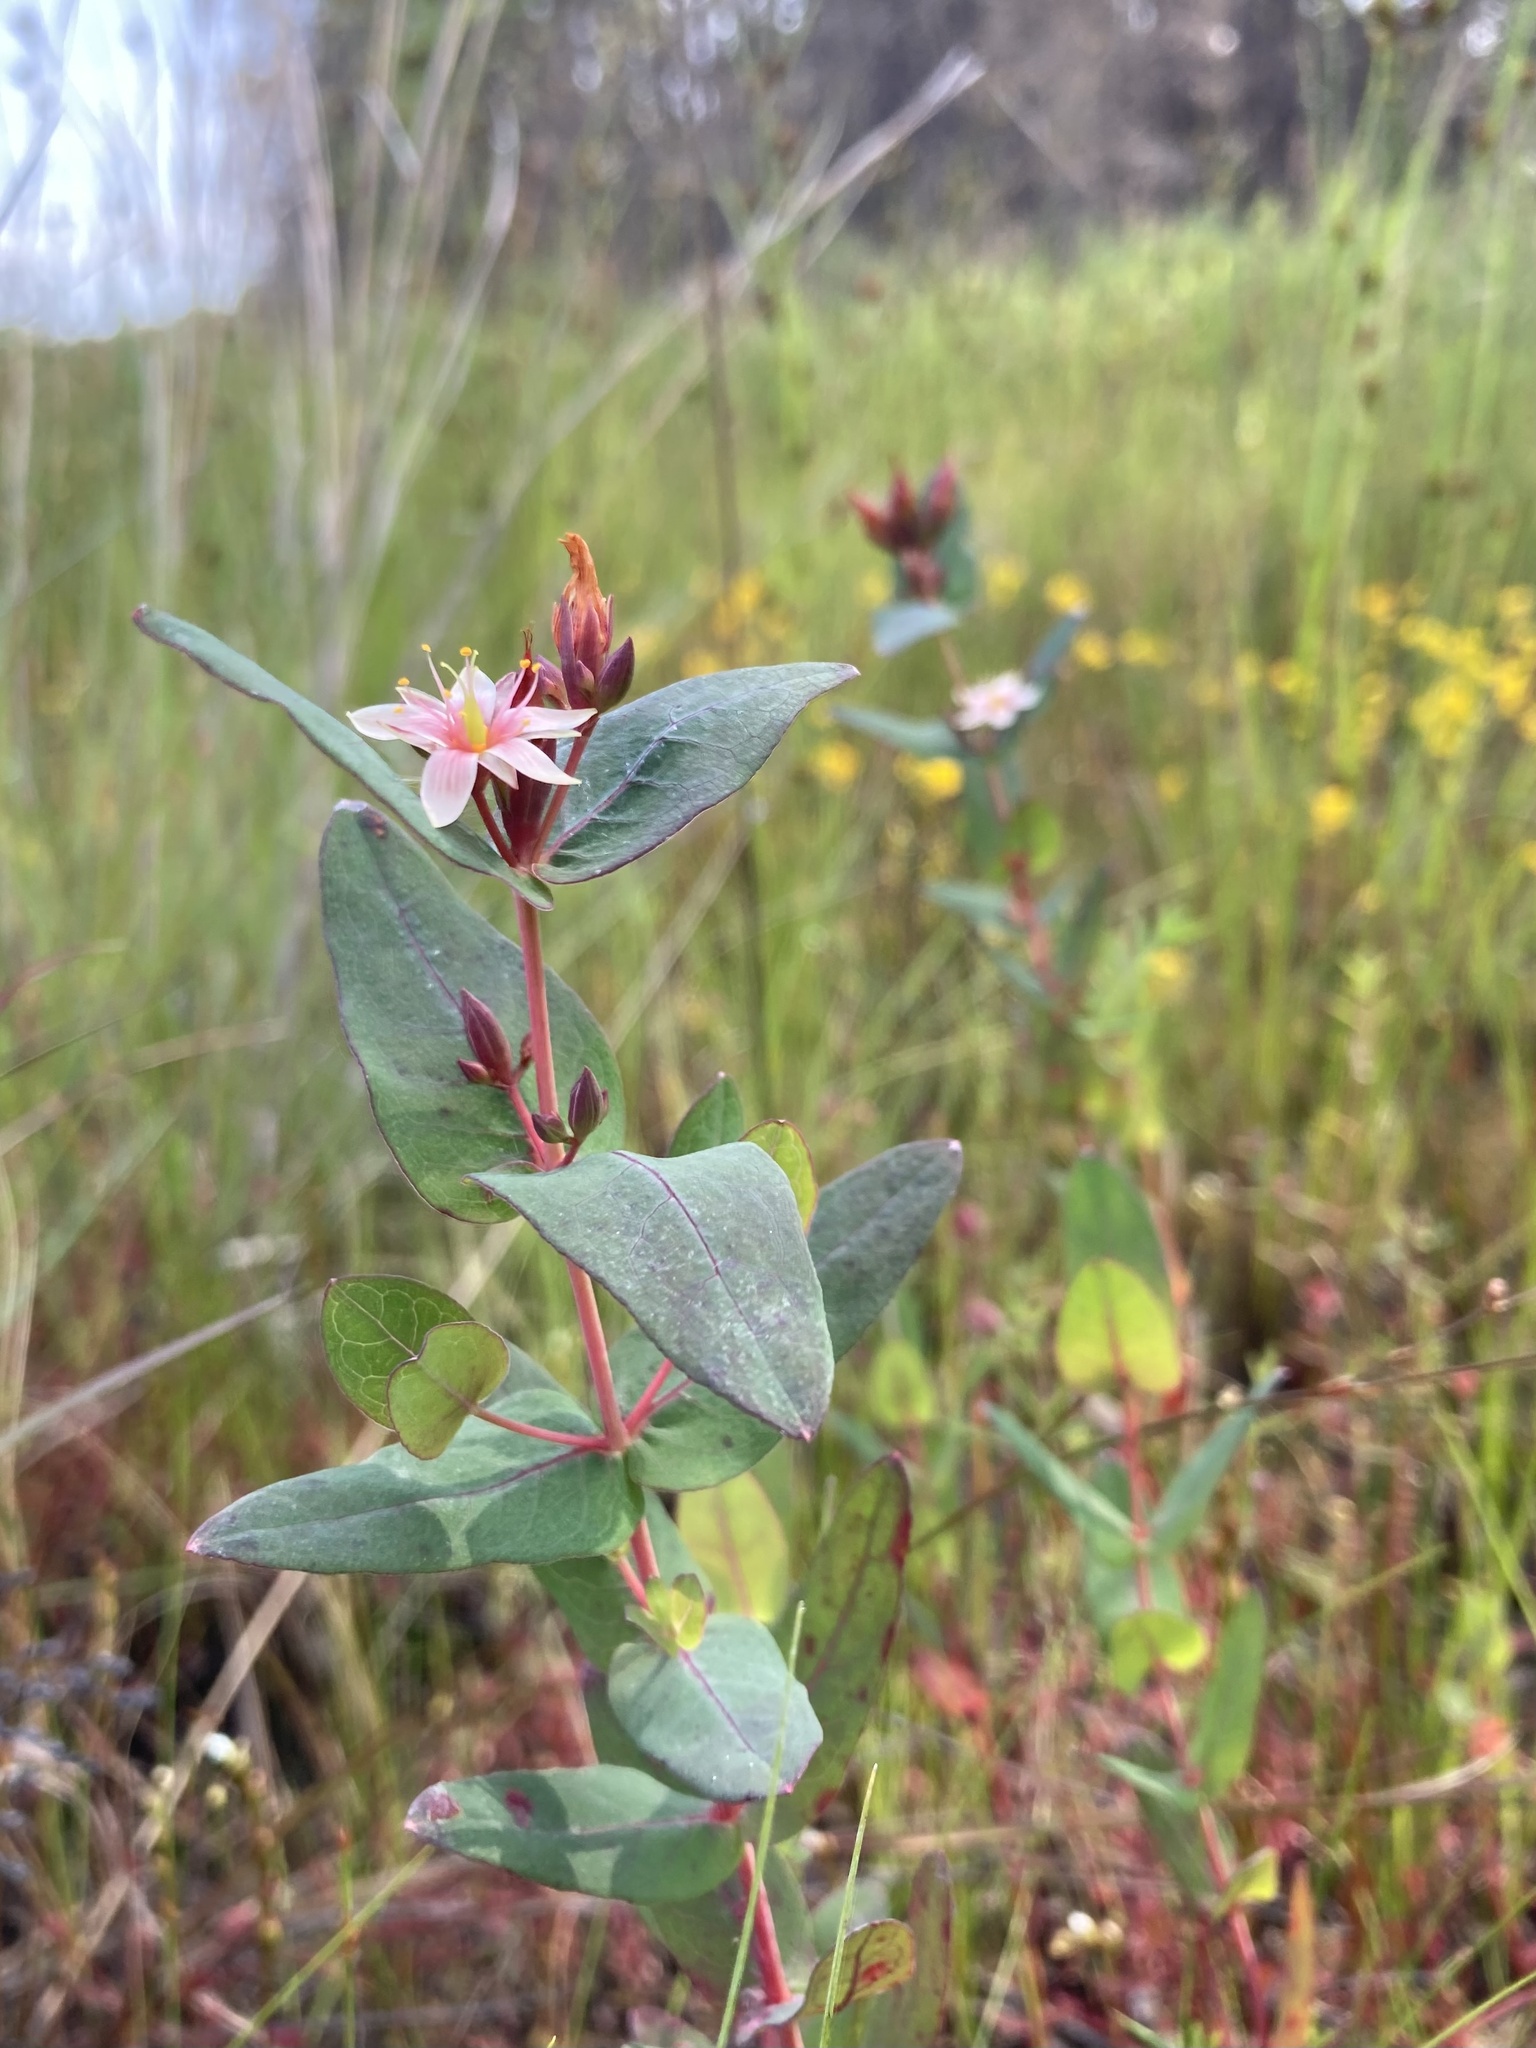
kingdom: Plantae
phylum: Tracheophyta
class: Magnoliopsida
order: Malpighiales
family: Hypericaceae
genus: Triadenum
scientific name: Triadenum virginicum
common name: Marsh st. john's-wort
